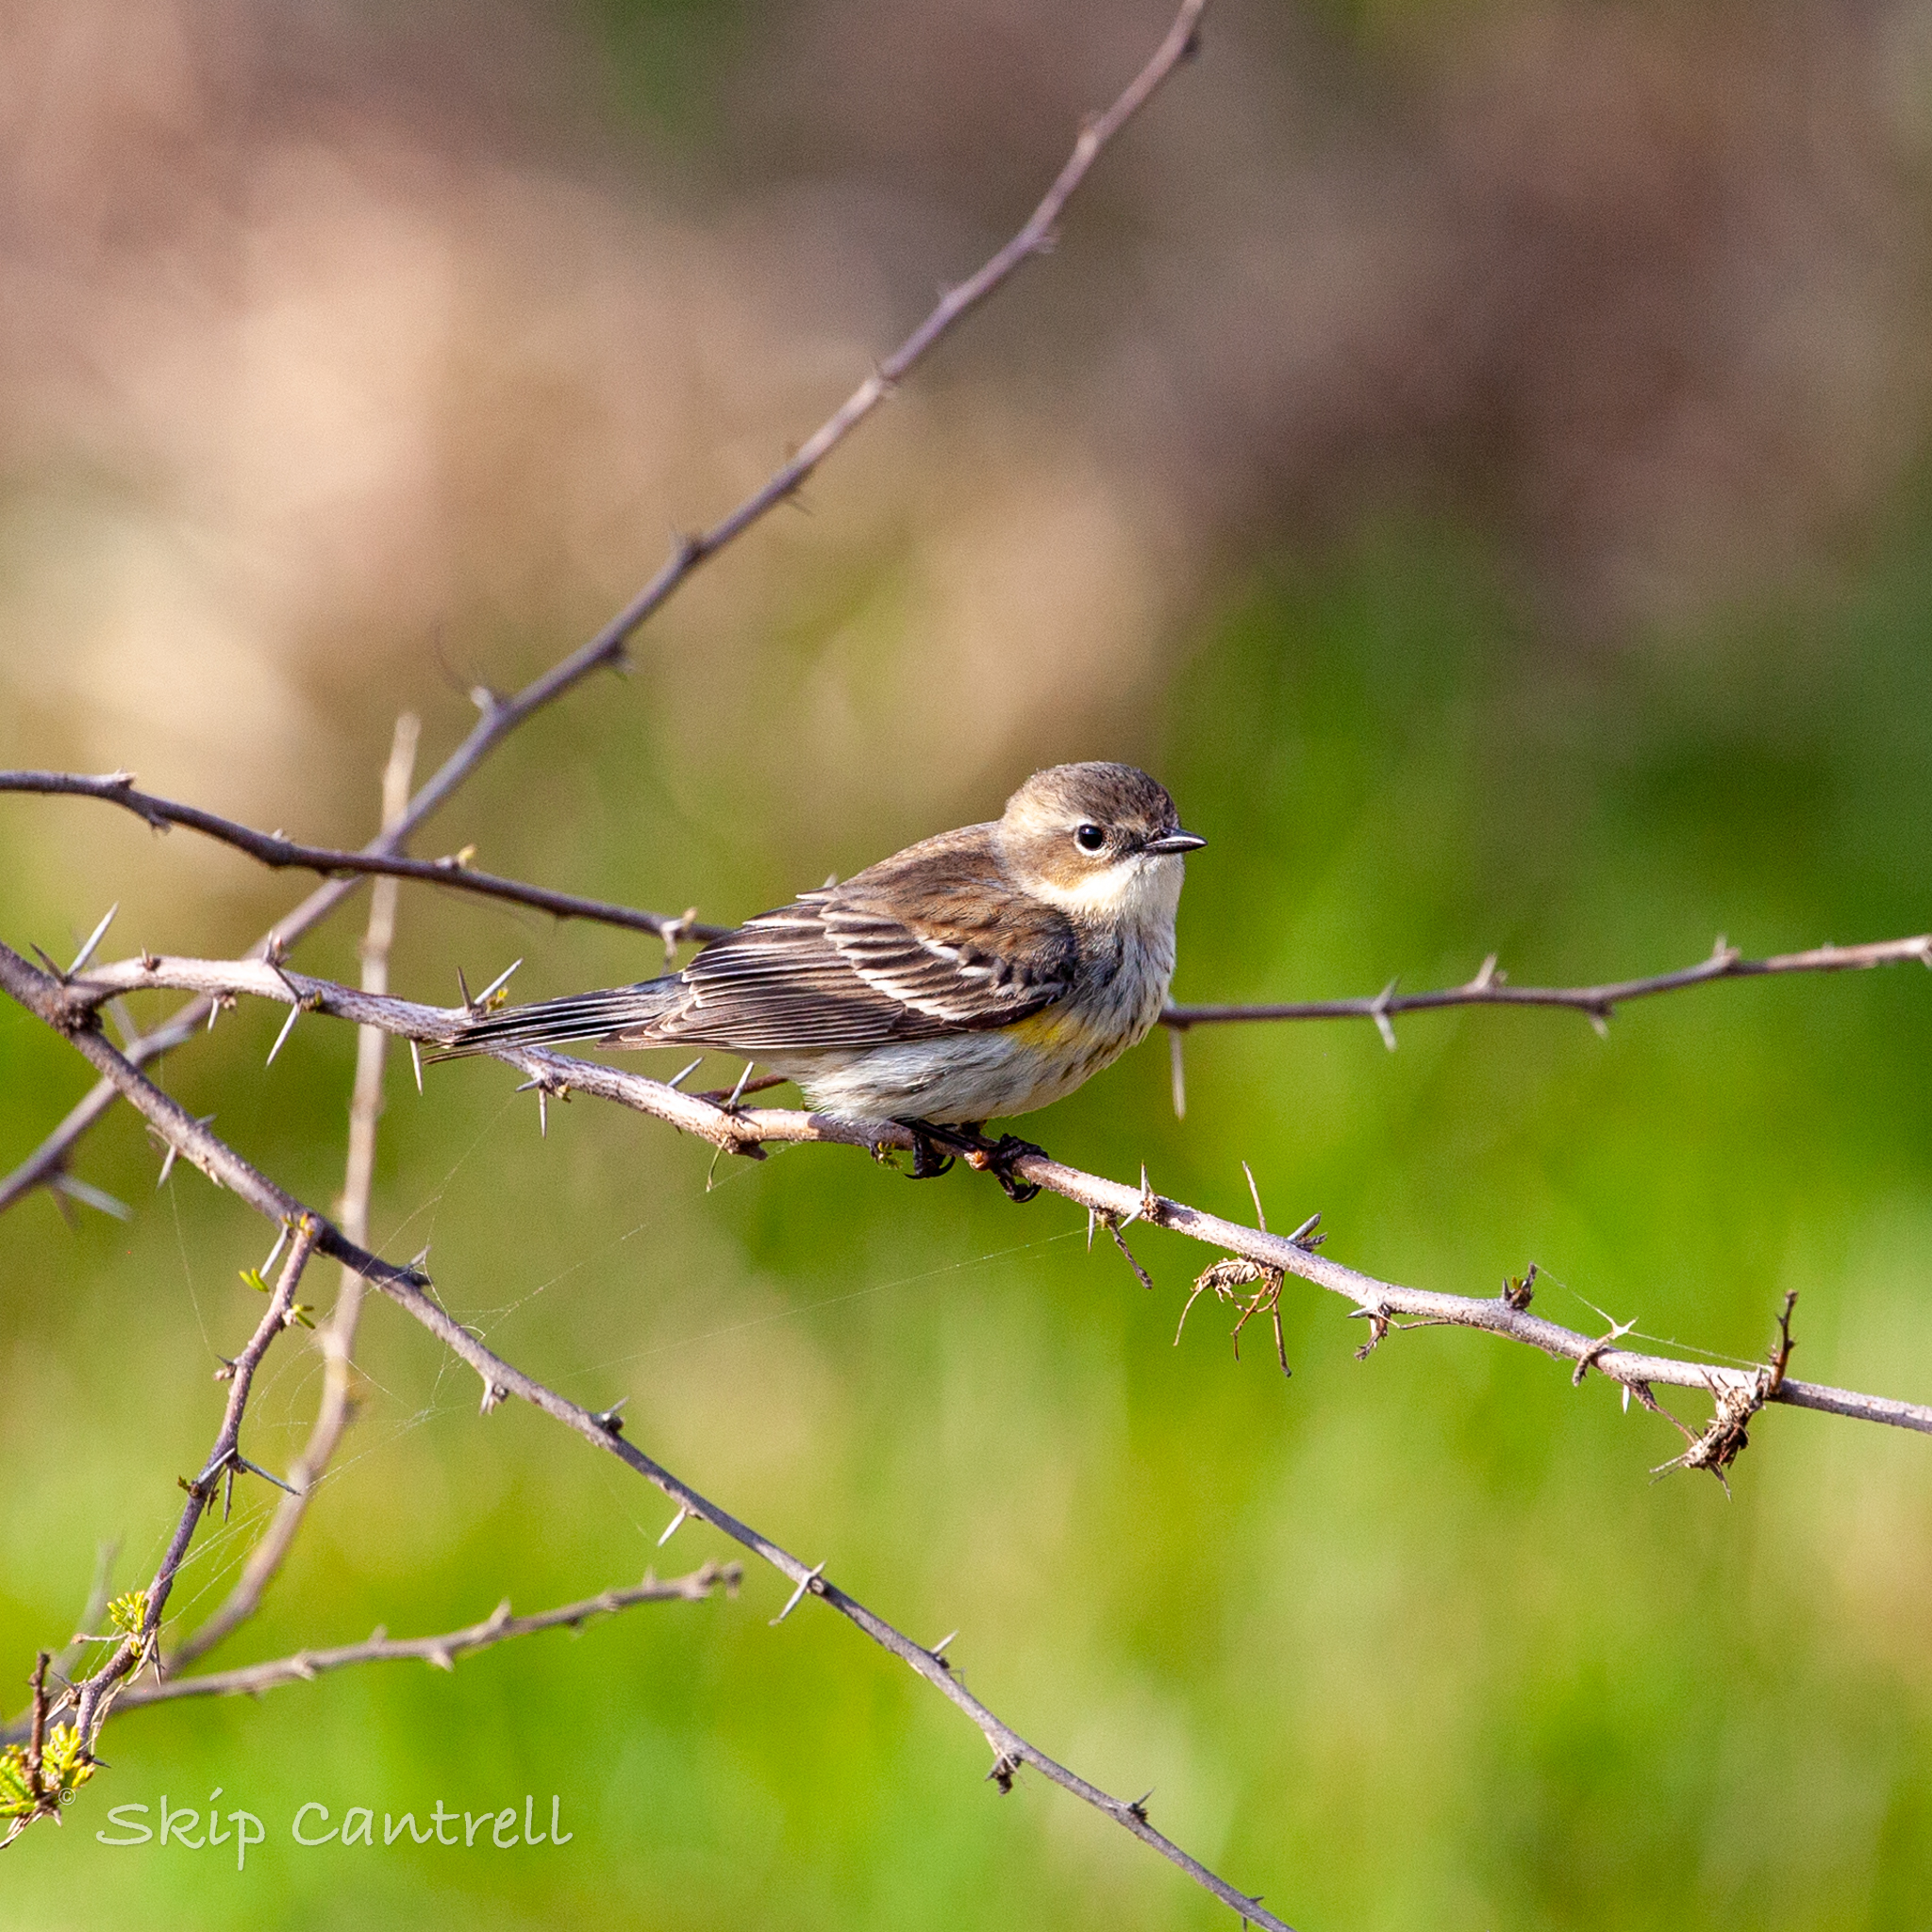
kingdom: Animalia
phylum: Chordata
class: Aves
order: Passeriformes
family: Parulidae
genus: Setophaga
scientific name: Setophaga coronata
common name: Myrtle warbler
